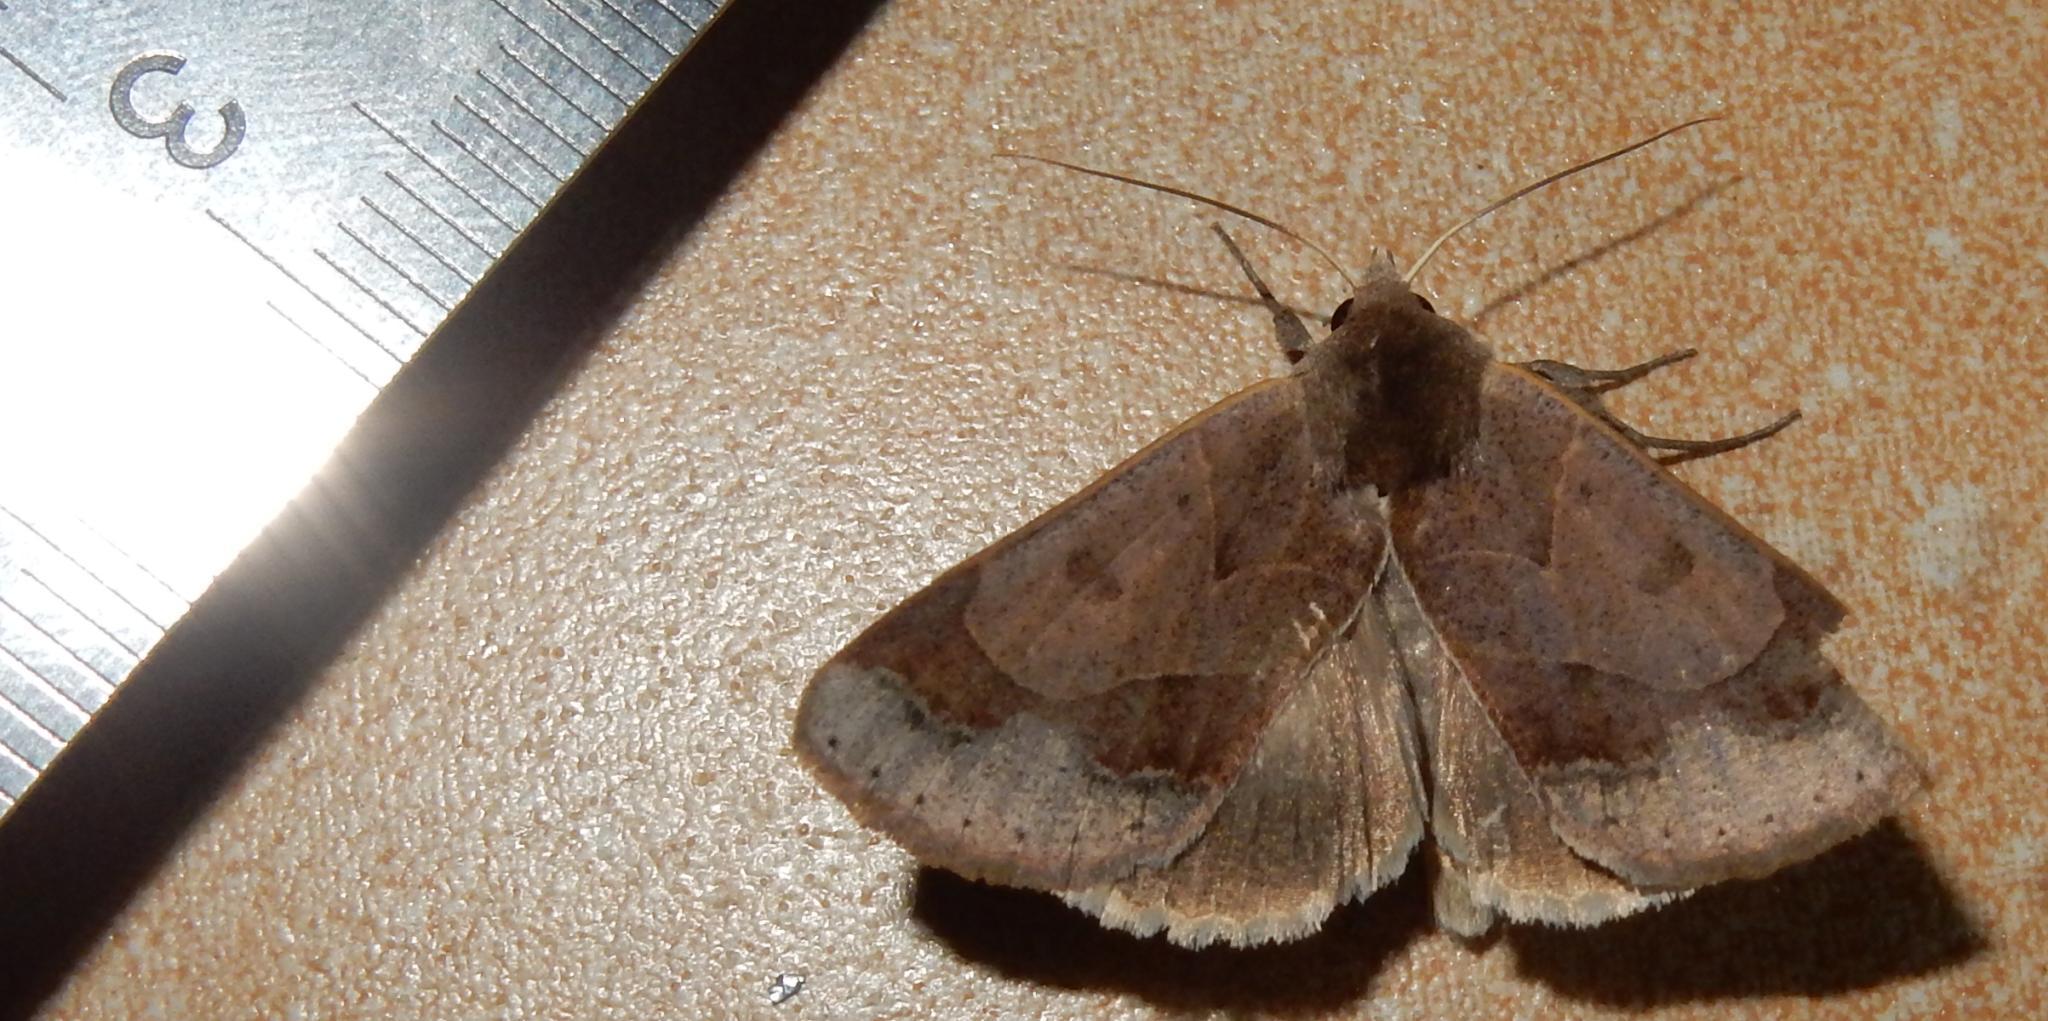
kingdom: Animalia
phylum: Arthropoda
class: Insecta
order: Lepidoptera
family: Erebidae
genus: Ophiusa
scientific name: Ophiusa selenaris
